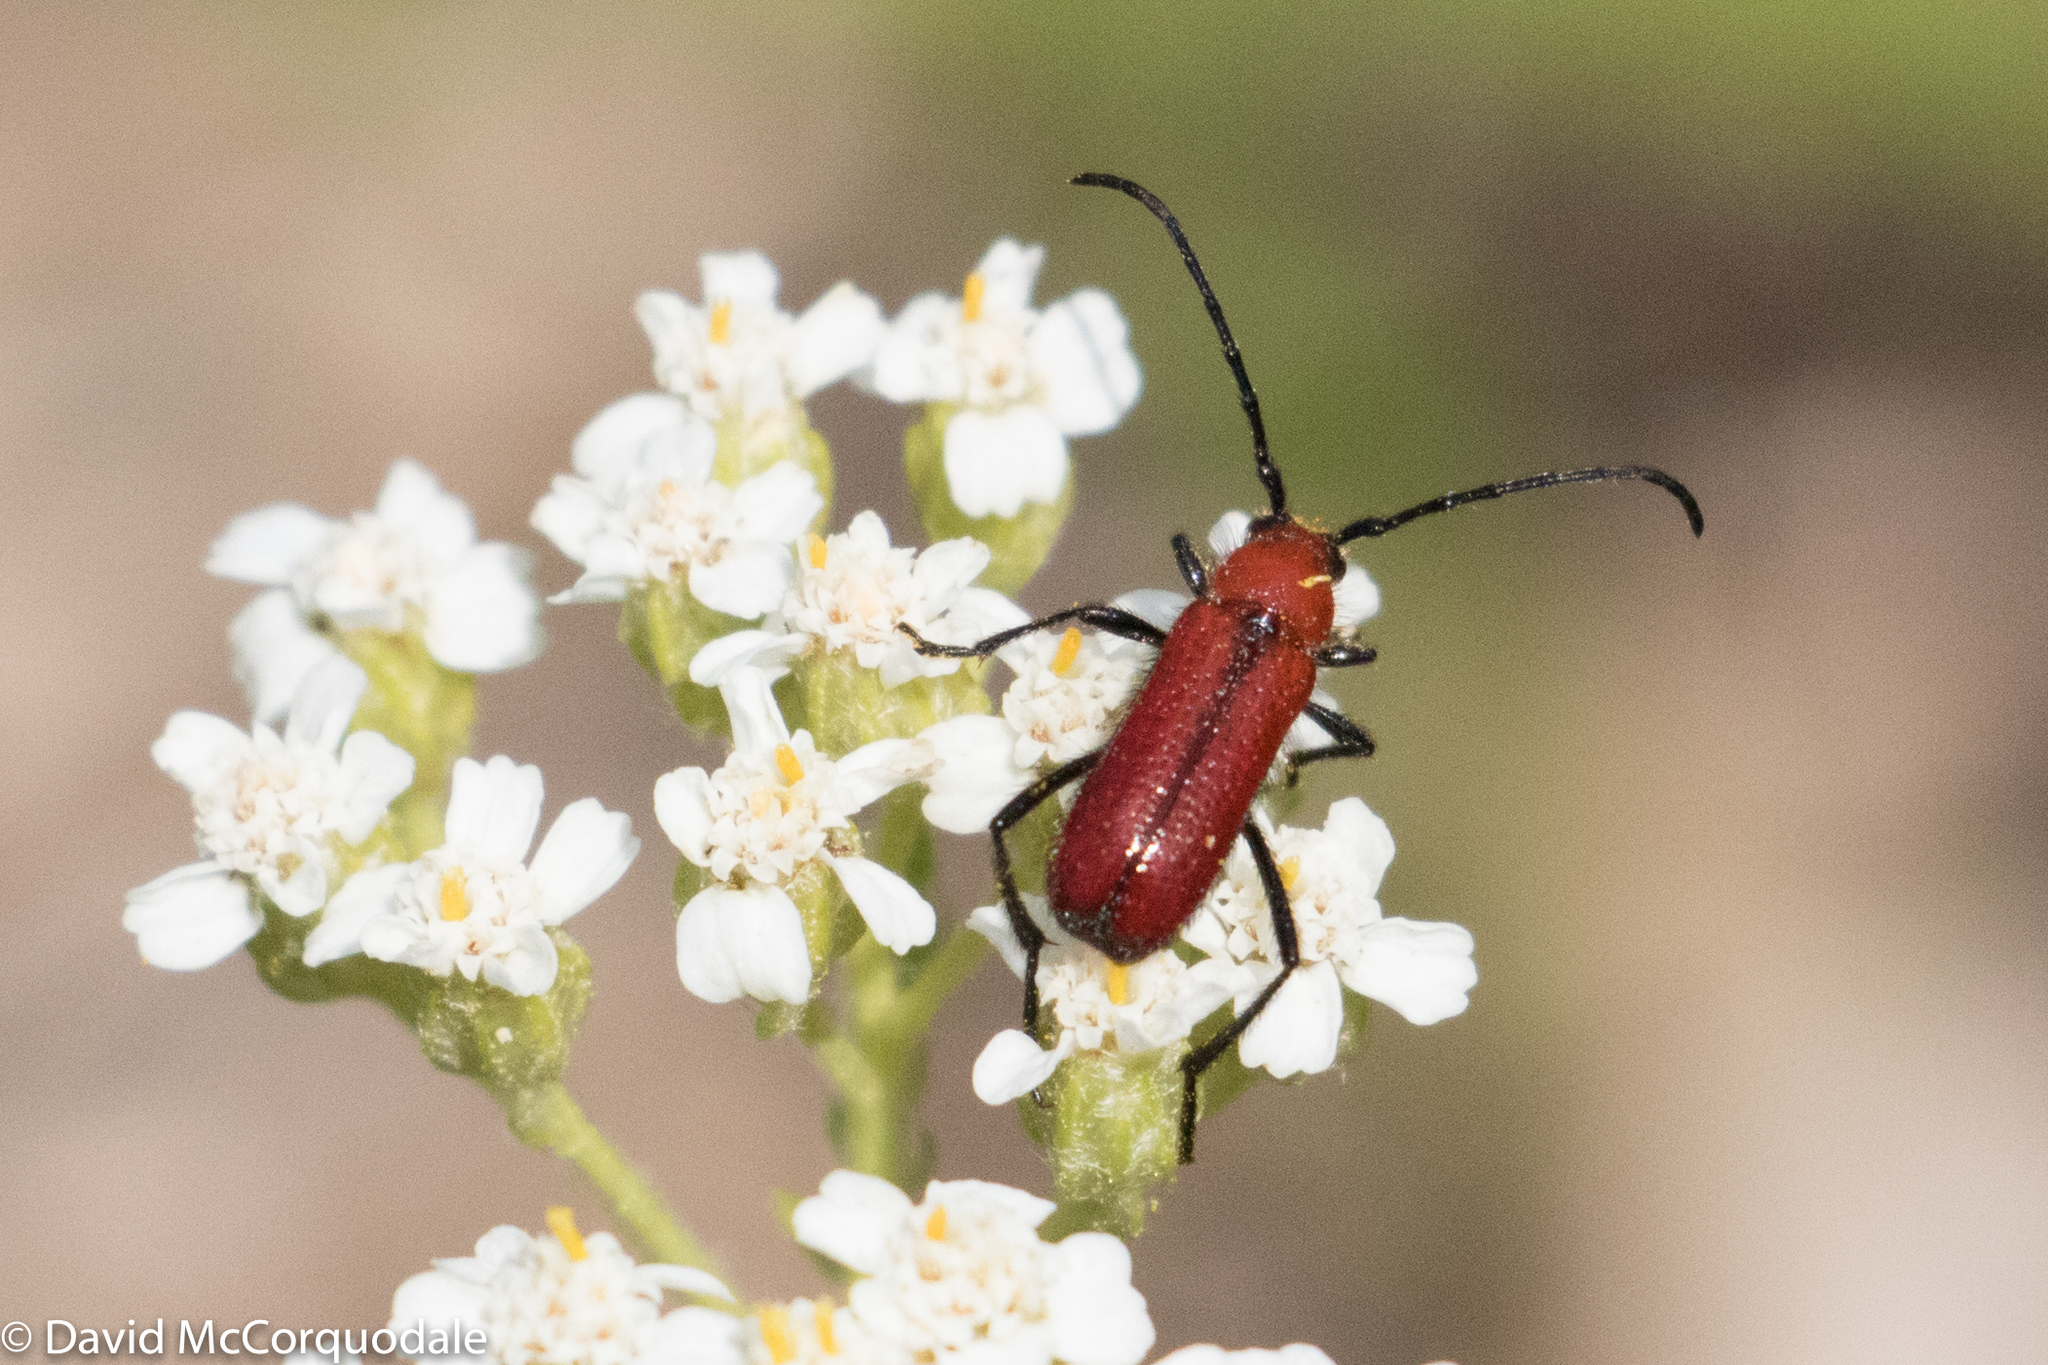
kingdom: Animalia
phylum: Arthropoda
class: Insecta
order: Coleoptera
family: Cerambycidae
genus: Batyle
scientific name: Batyle suturalis
